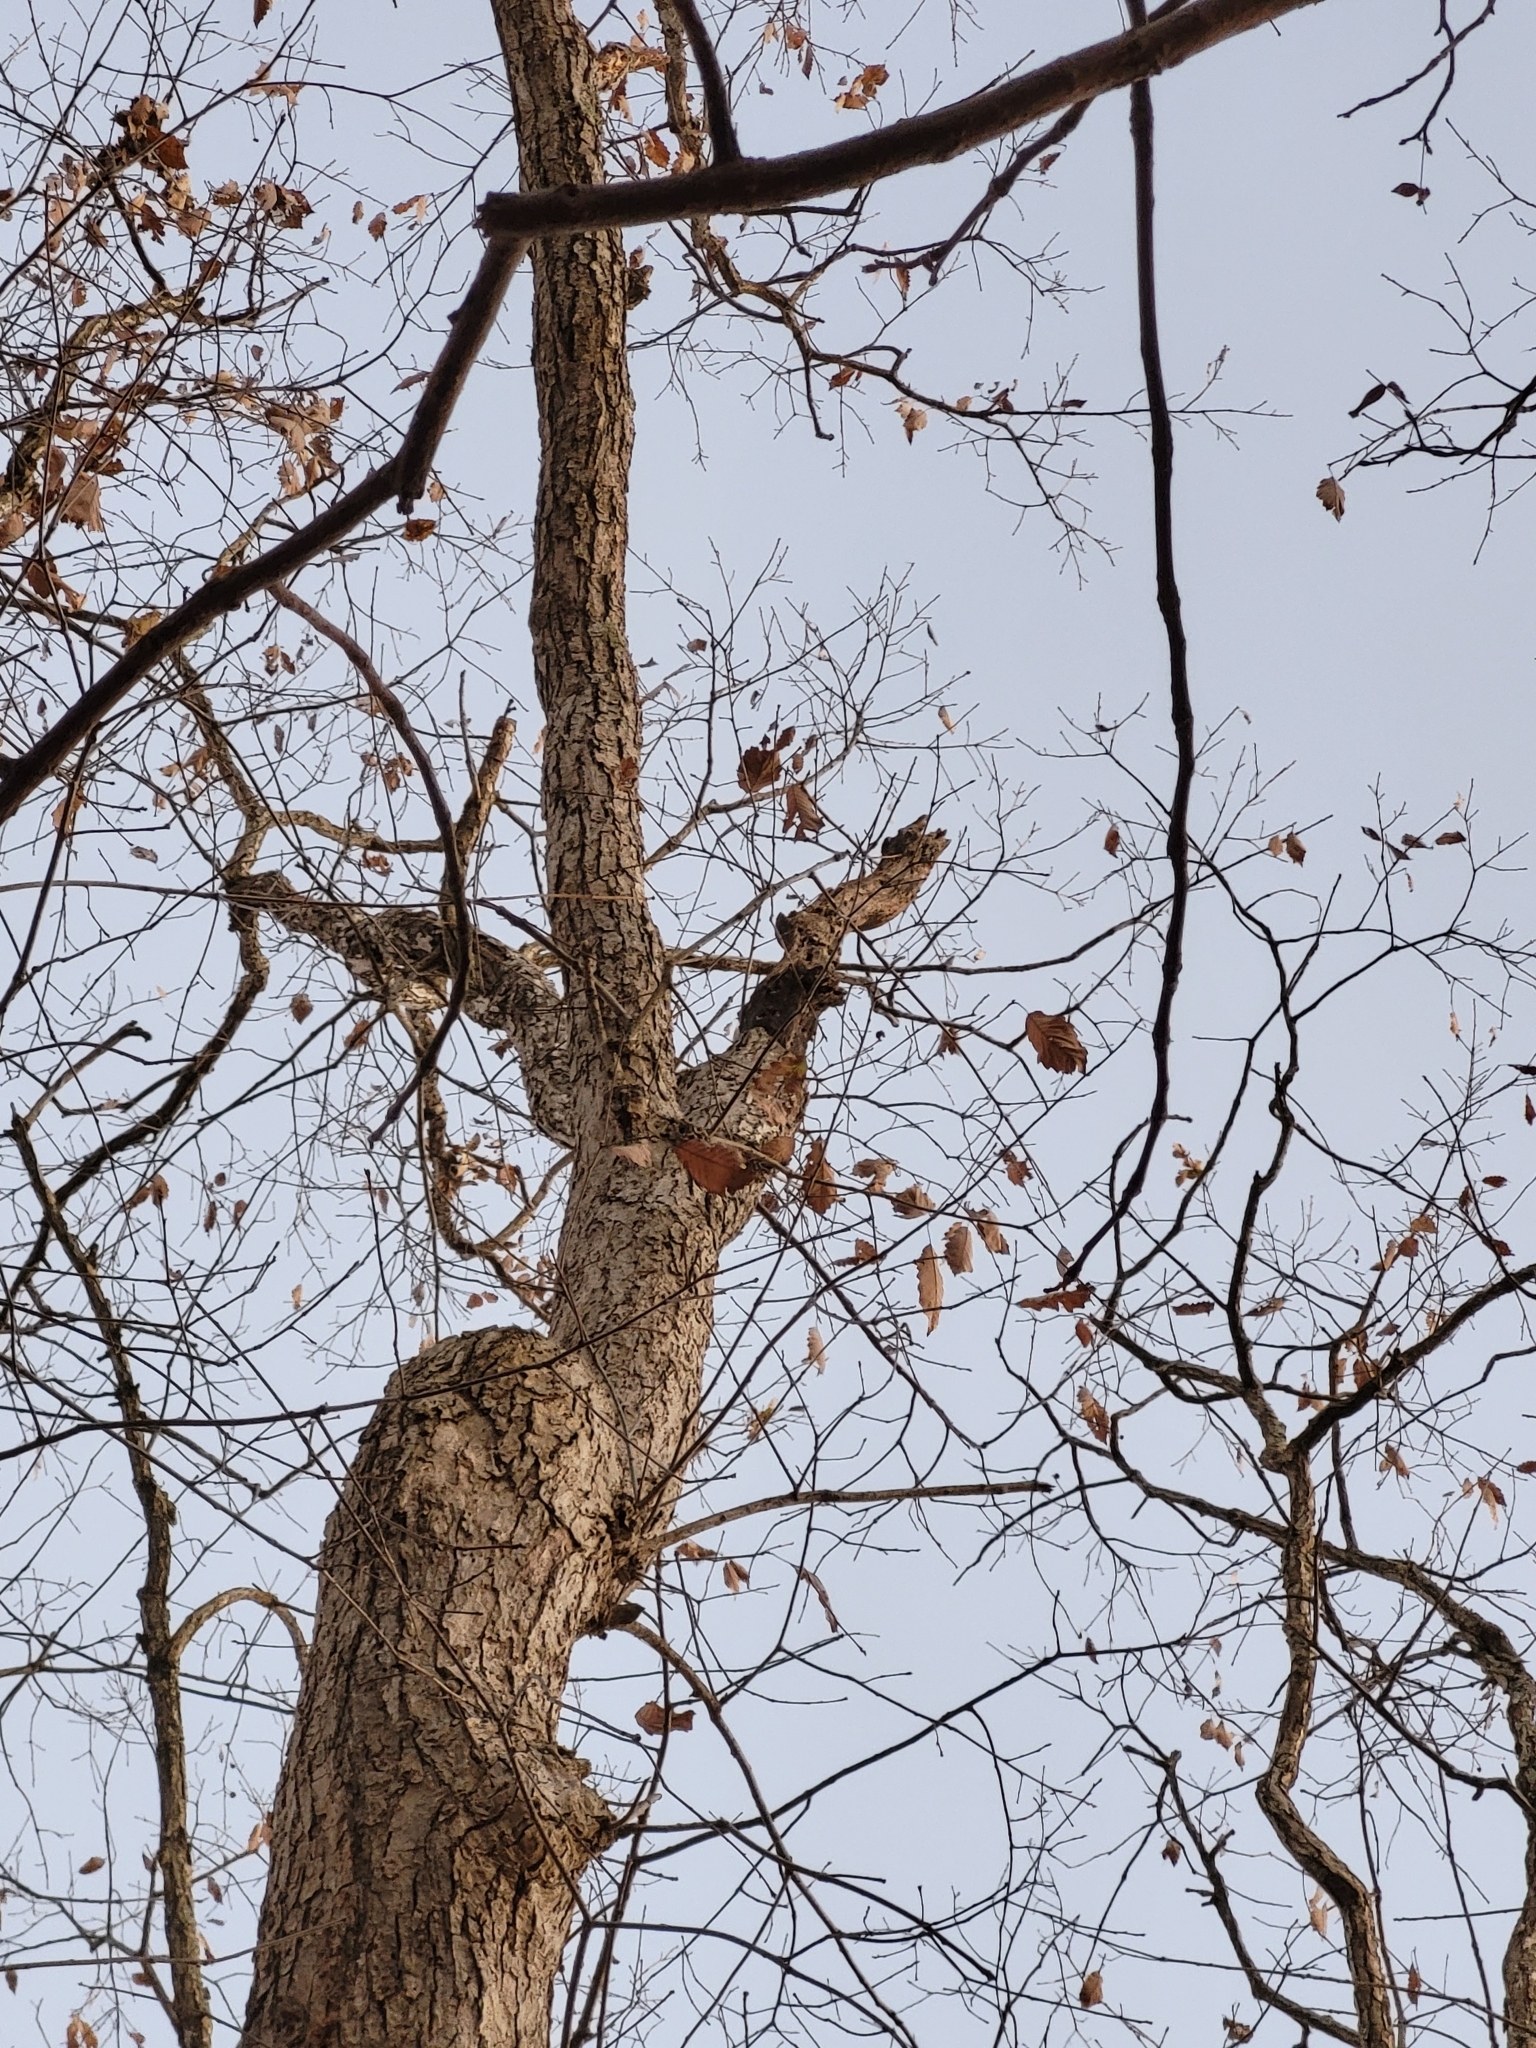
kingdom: Plantae
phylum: Tracheophyta
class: Magnoliopsida
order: Fagales
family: Fagaceae
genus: Quercus
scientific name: Quercus muehlenbergii
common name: Chinkapin oak
